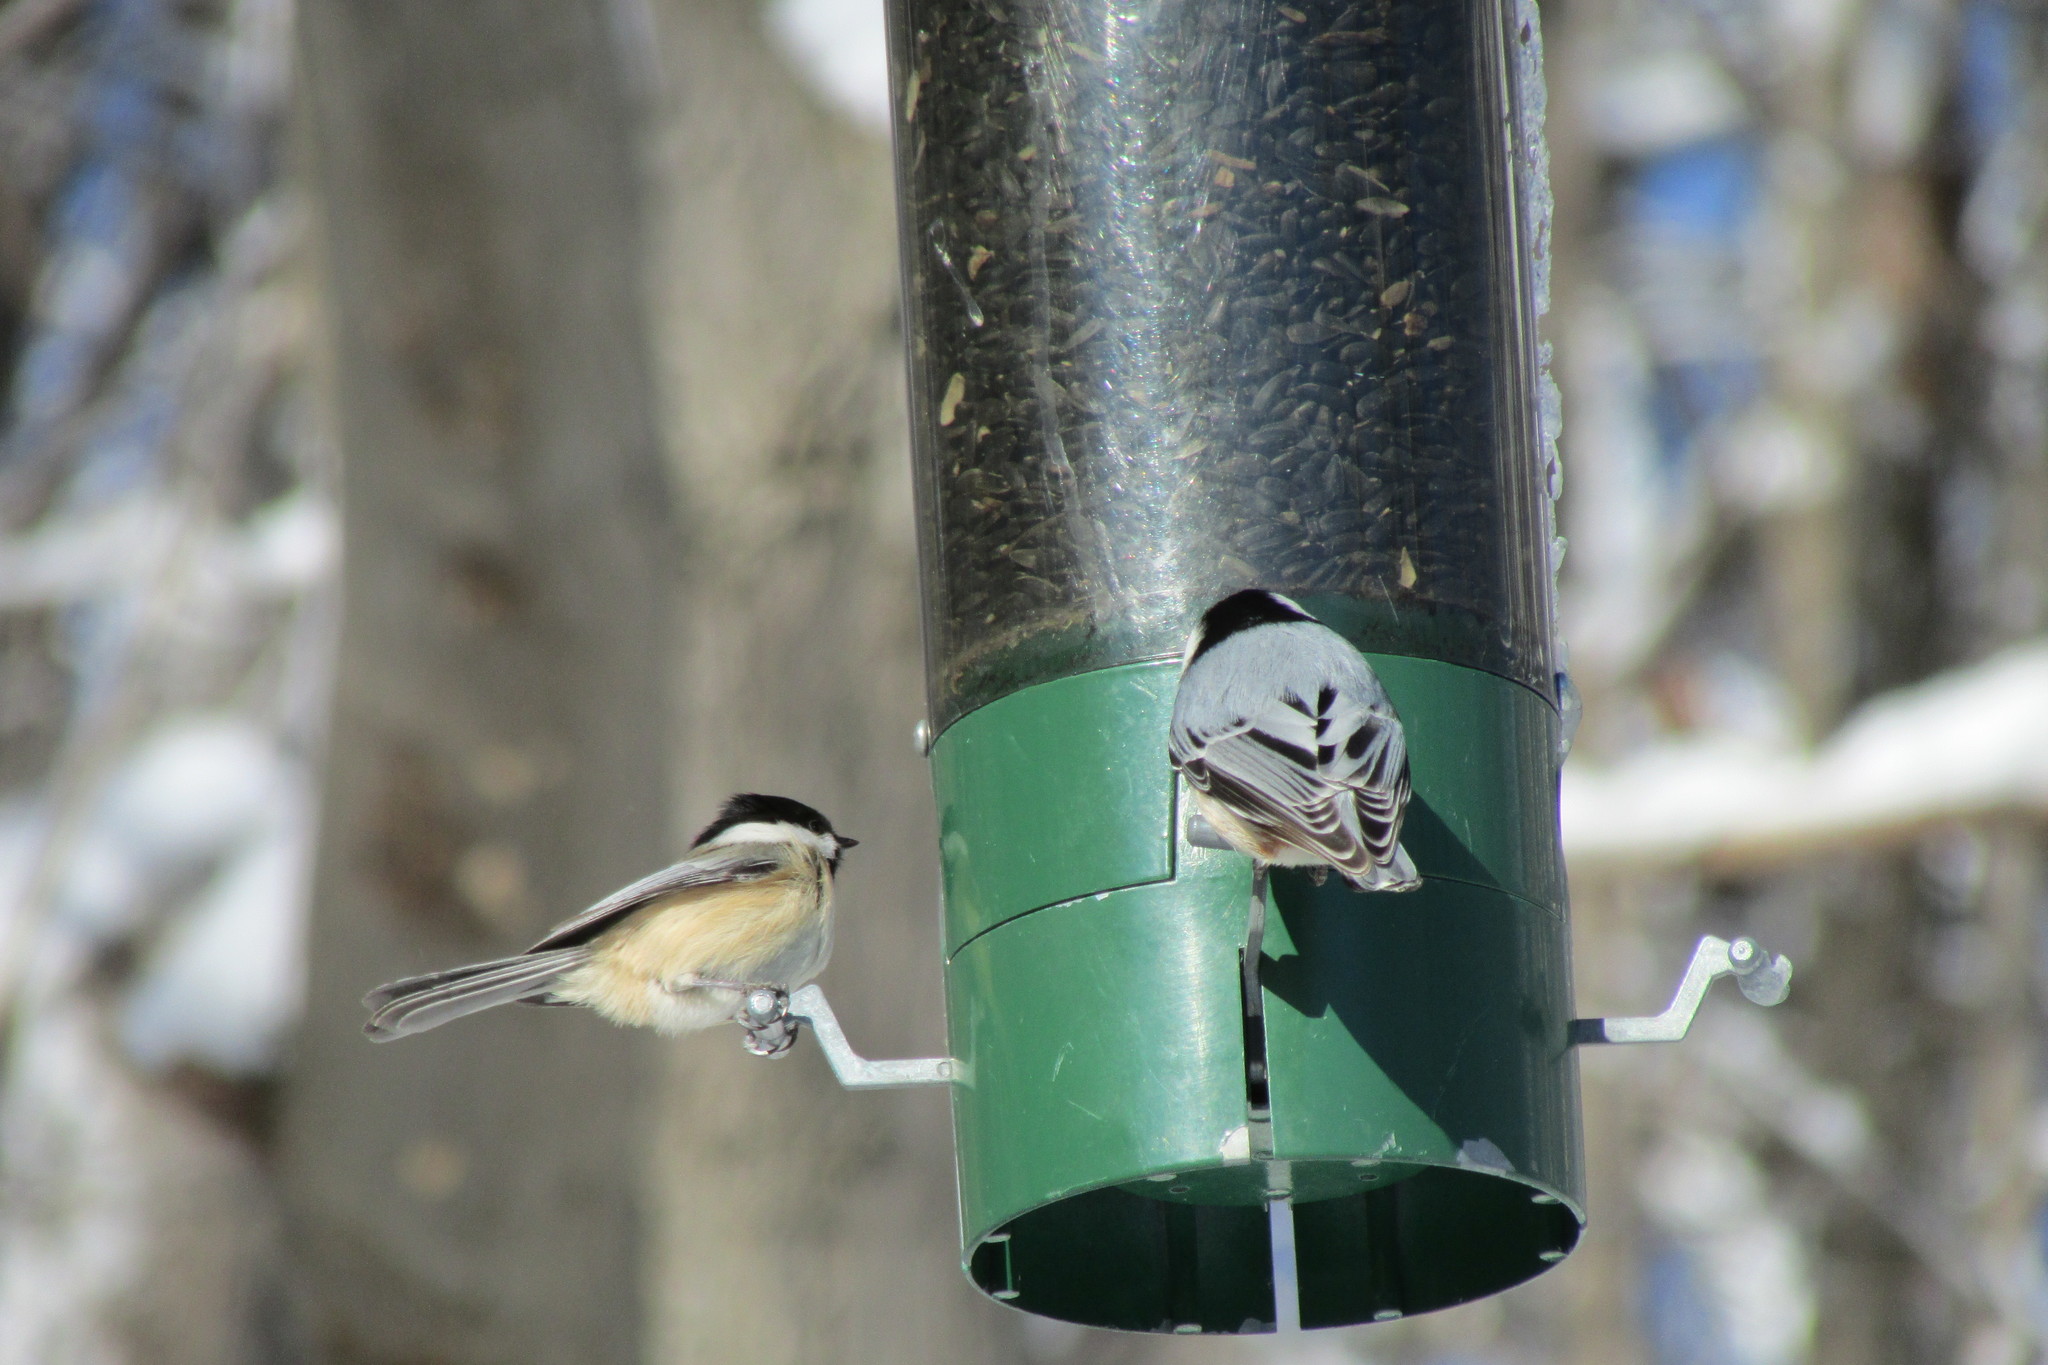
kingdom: Animalia
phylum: Chordata
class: Aves
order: Passeriformes
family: Paridae
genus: Poecile
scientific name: Poecile atricapillus
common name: Black-capped chickadee
